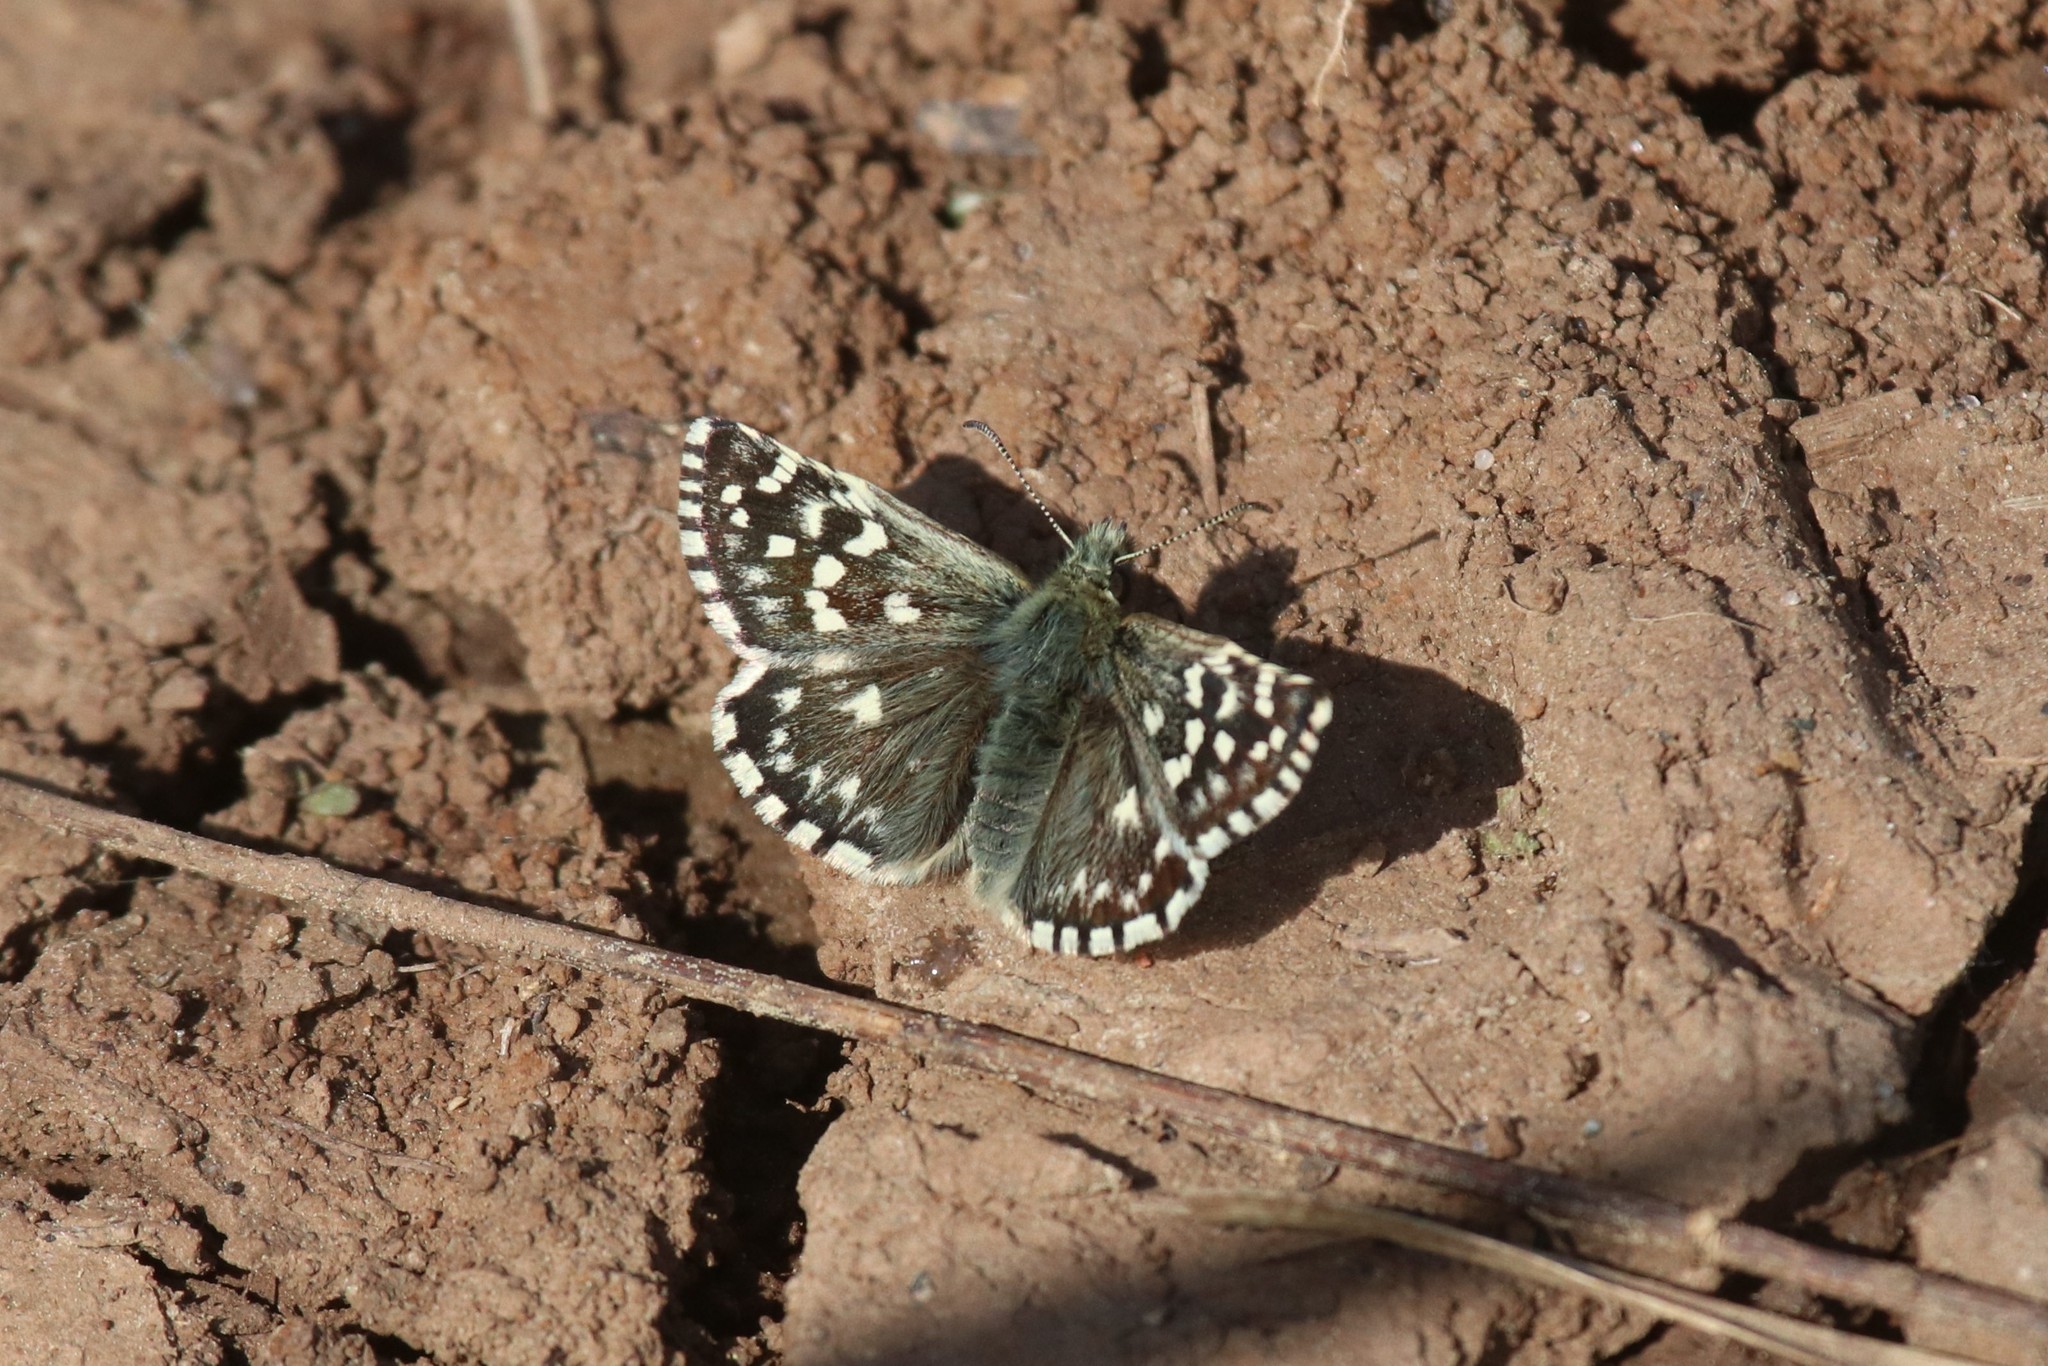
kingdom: Animalia
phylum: Arthropoda
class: Insecta
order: Lepidoptera
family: Hesperiidae
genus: Pyrgus
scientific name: Pyrgus malvae
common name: Grizzled skipper
